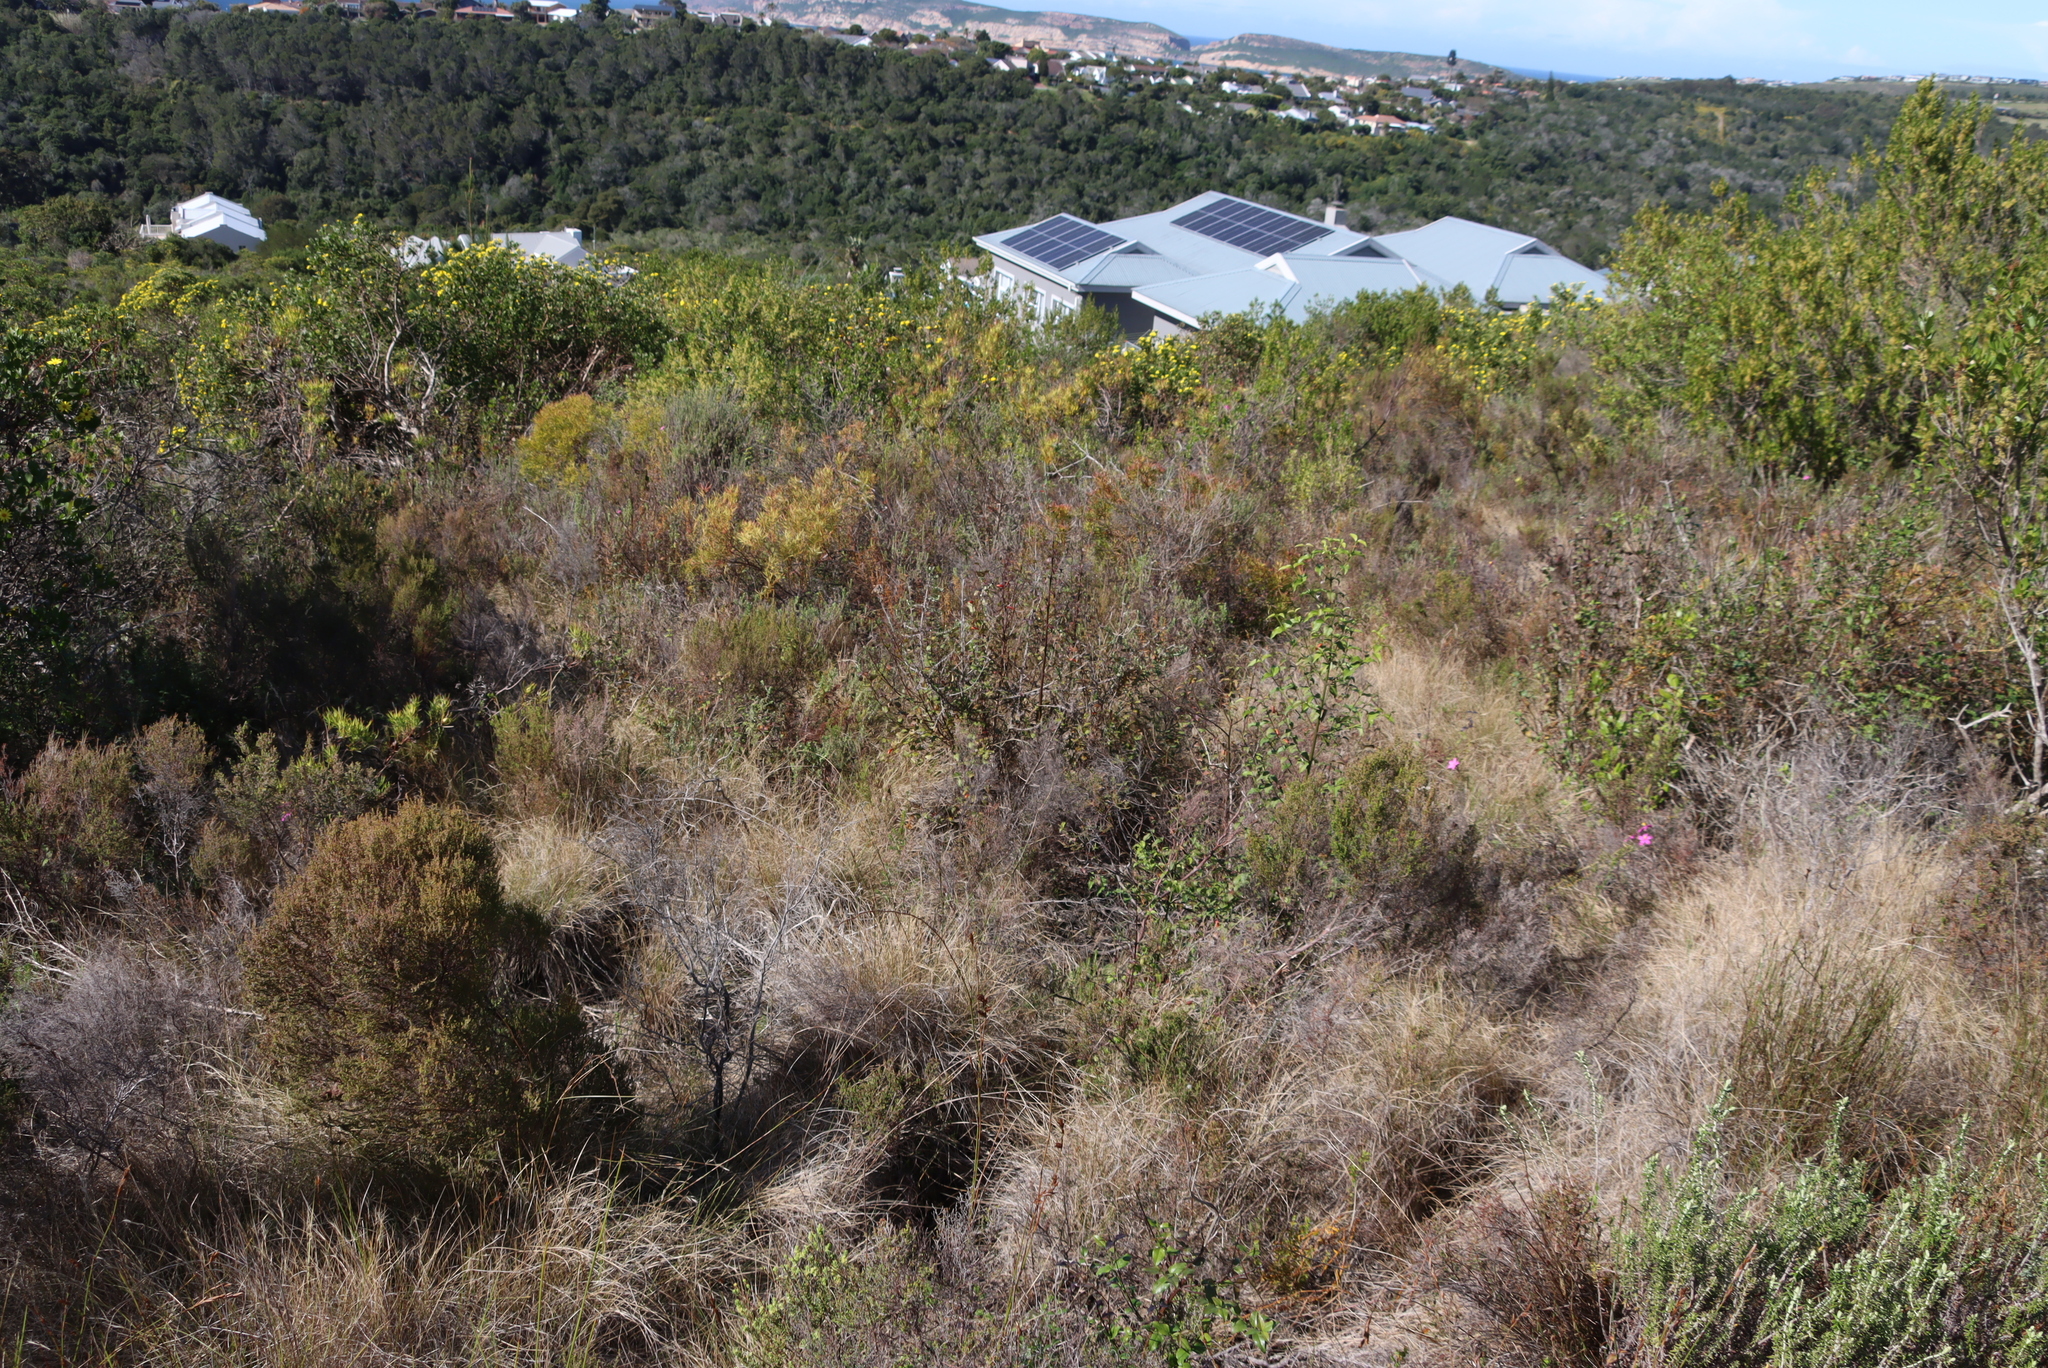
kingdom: Plantae
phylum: Tracheophyta
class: Magnoliopsida
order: Proteales
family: Proteaceae
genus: Leucadendron
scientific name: Leucadendron salignum
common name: Common sunshine conebush
